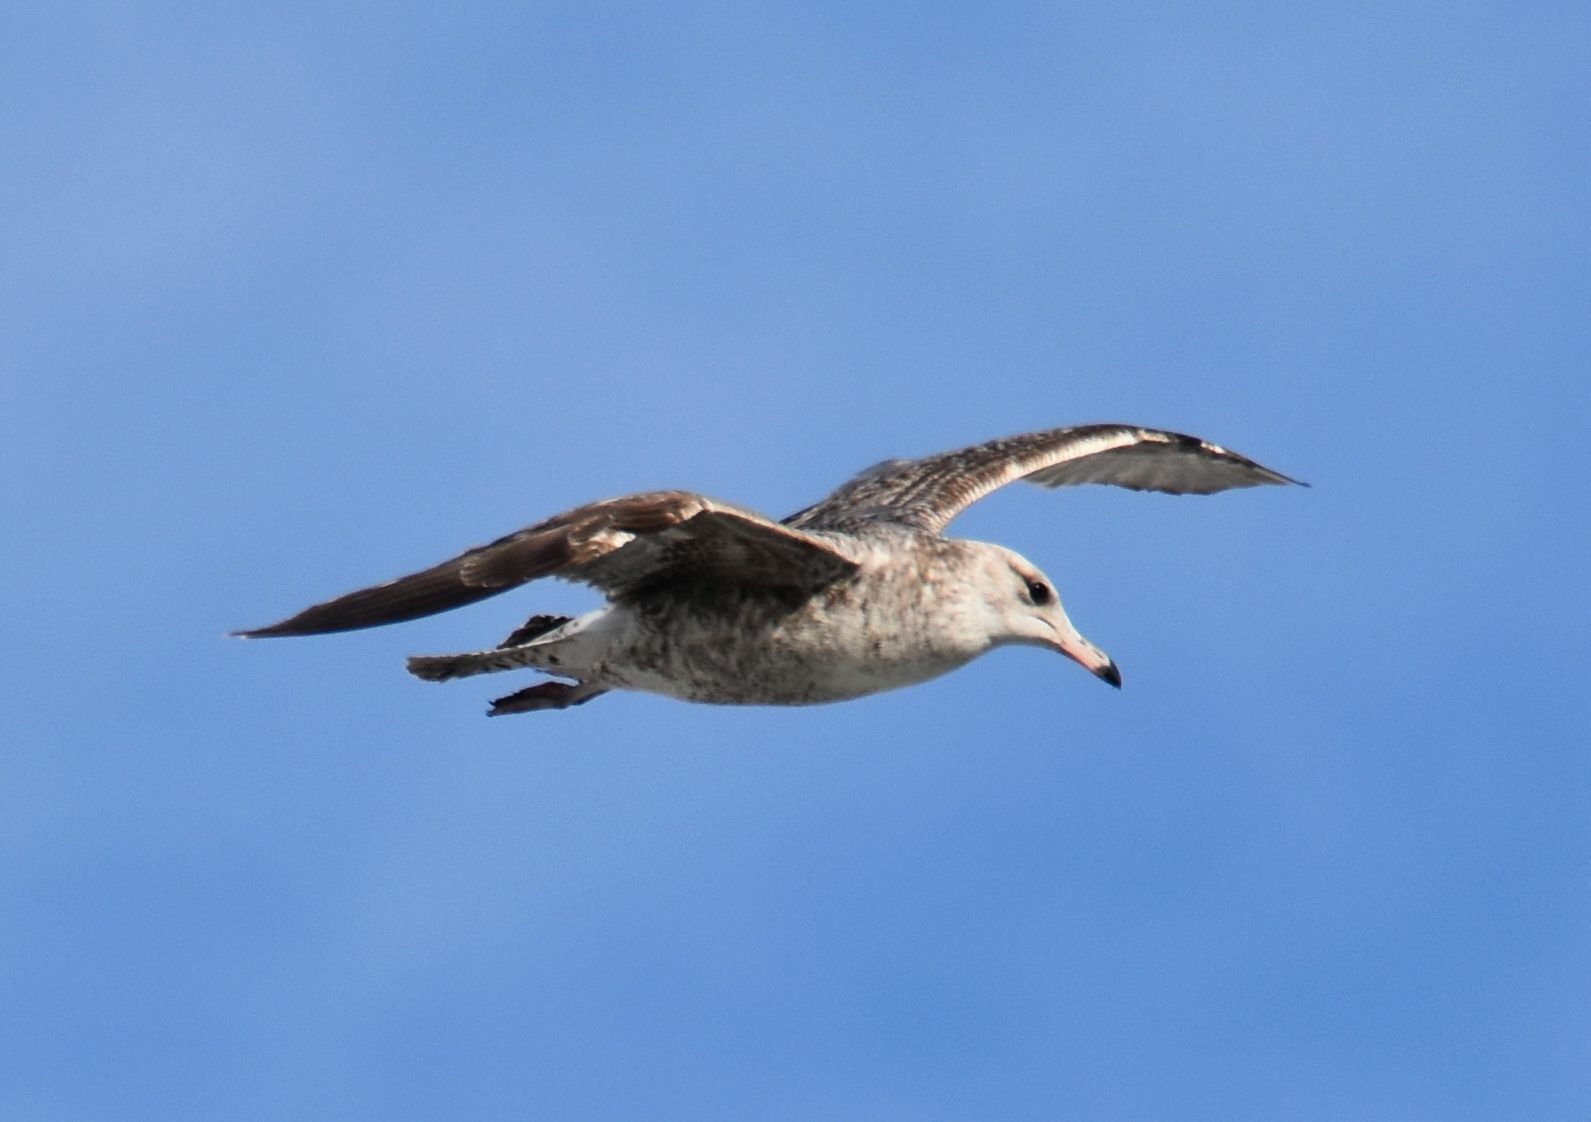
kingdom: Animalia
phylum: Chordata
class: Aves
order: Charadriiformes
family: Laridae
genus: Larus
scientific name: Larus californicus
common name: California gull
